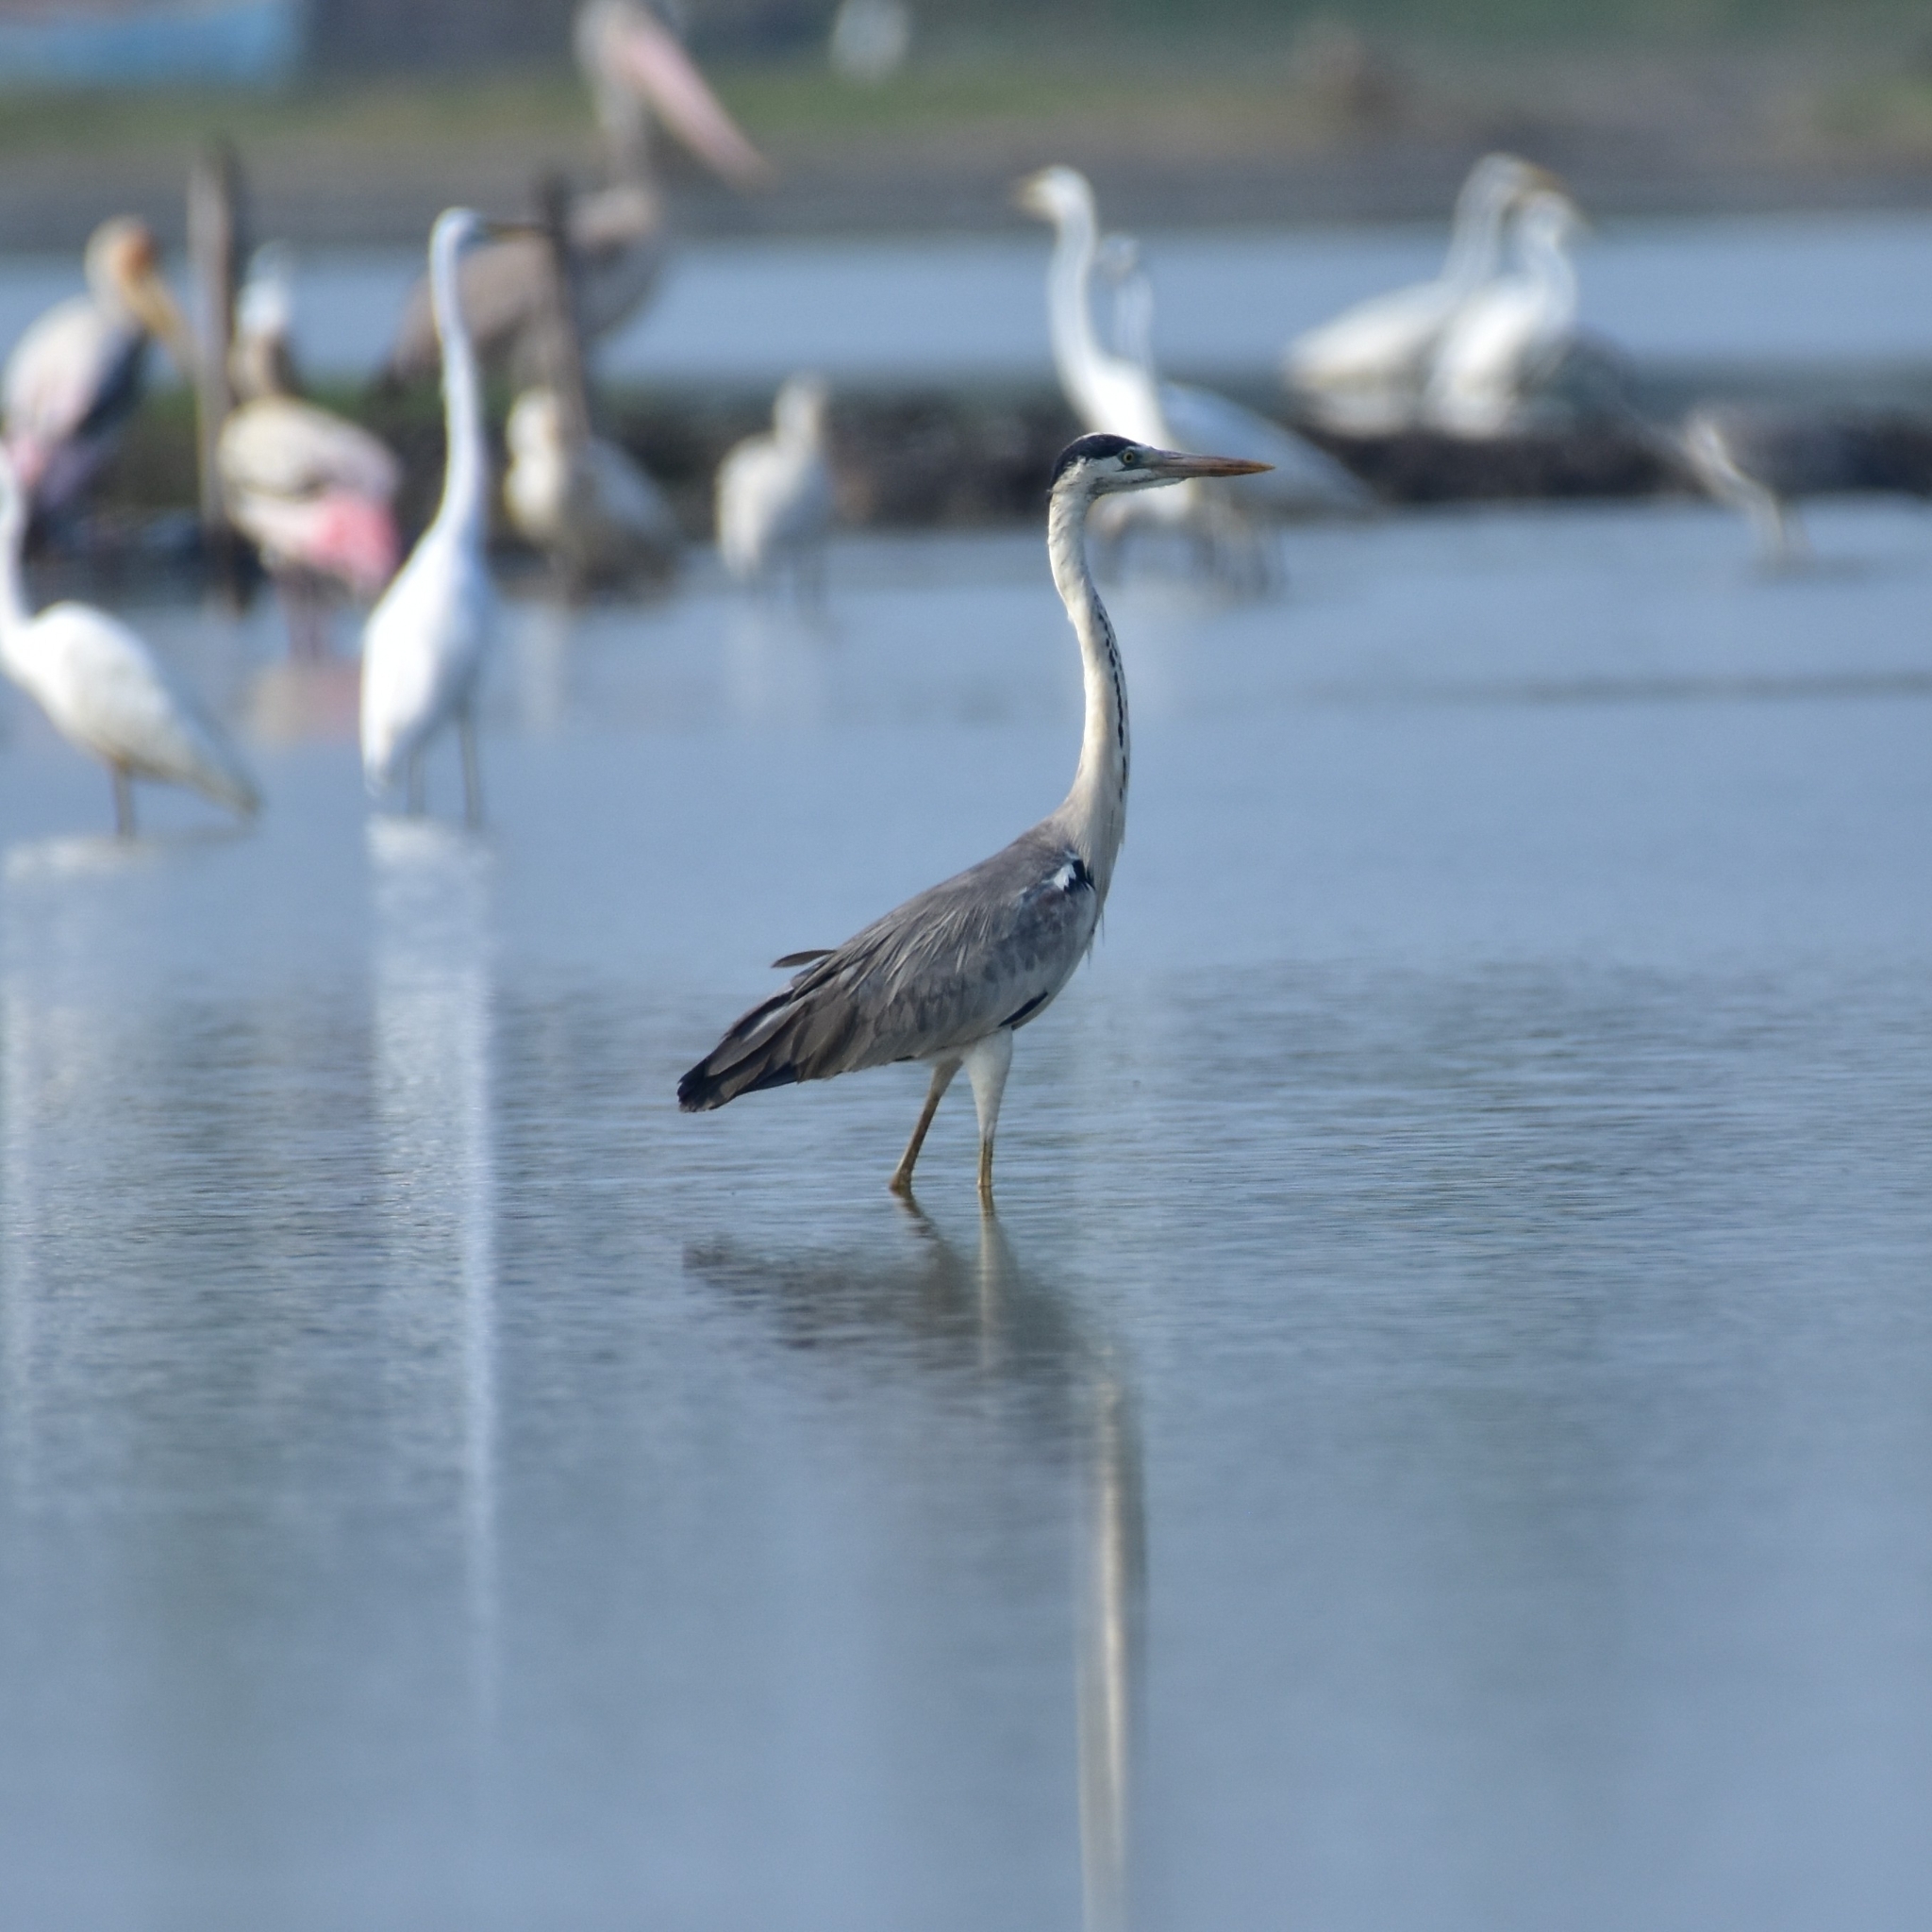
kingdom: Animalia
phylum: Chordata
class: Aves
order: Pelecaniformes
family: Ardeidae
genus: Ardea
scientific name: Ardea cinerea
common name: Grey heron
